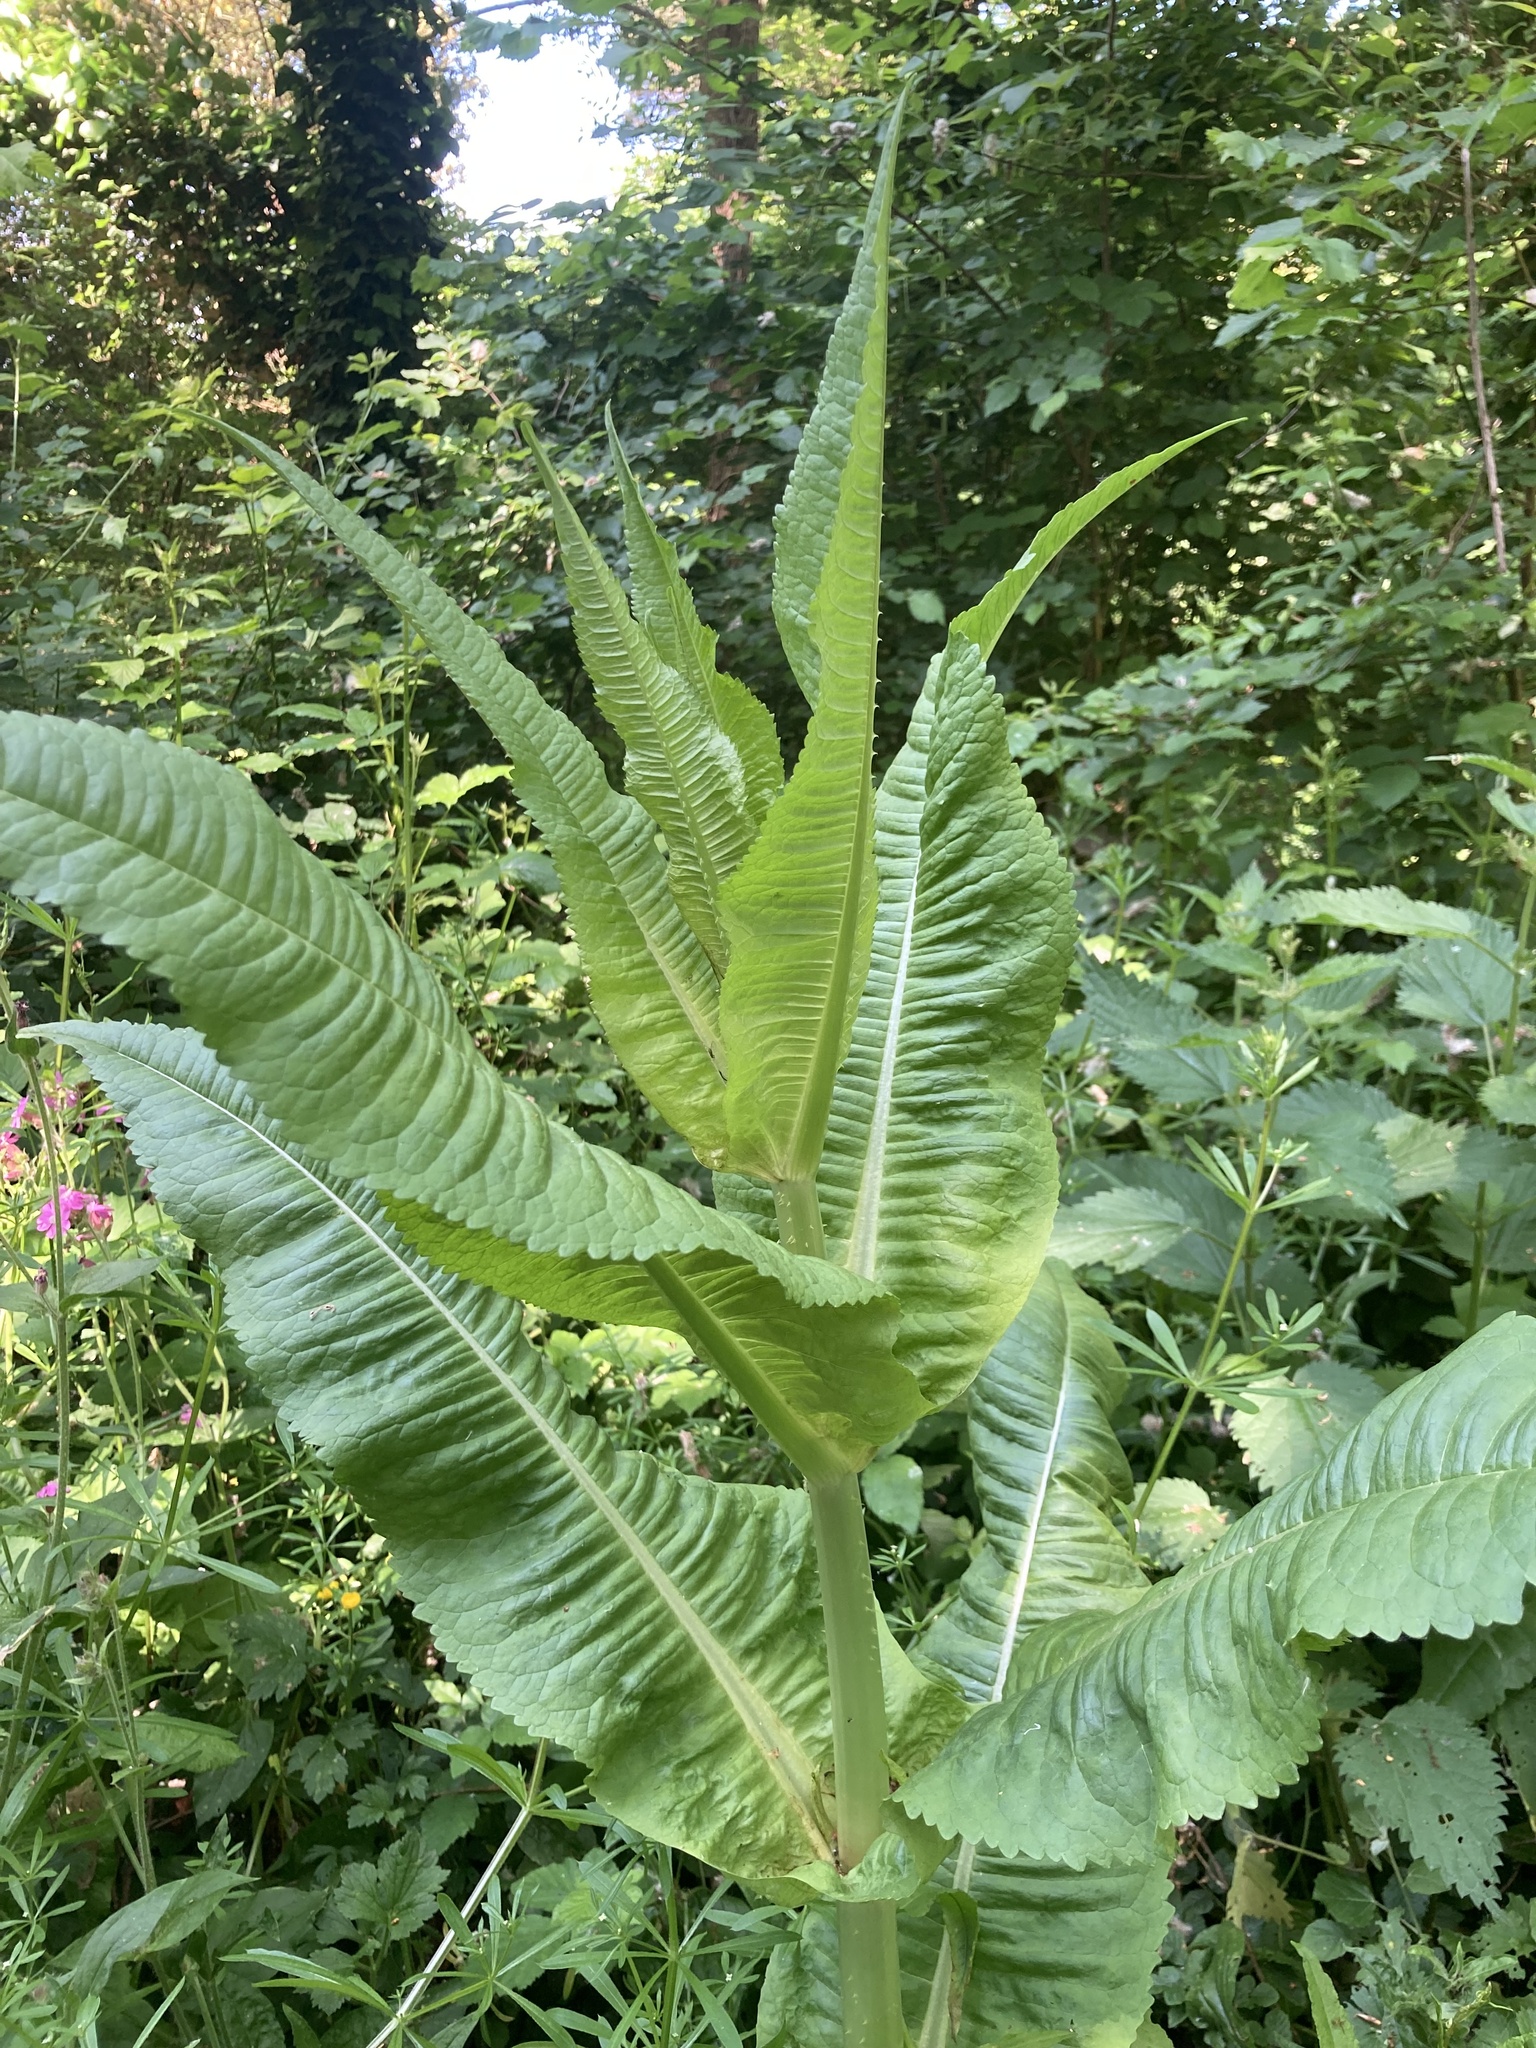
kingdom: Plantae
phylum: Tracheophyta
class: Magnoliopsida
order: Dipsacales
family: Caprifoliaceae
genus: Dipsacus
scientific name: Dipsacus fullonum
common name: Teasel
